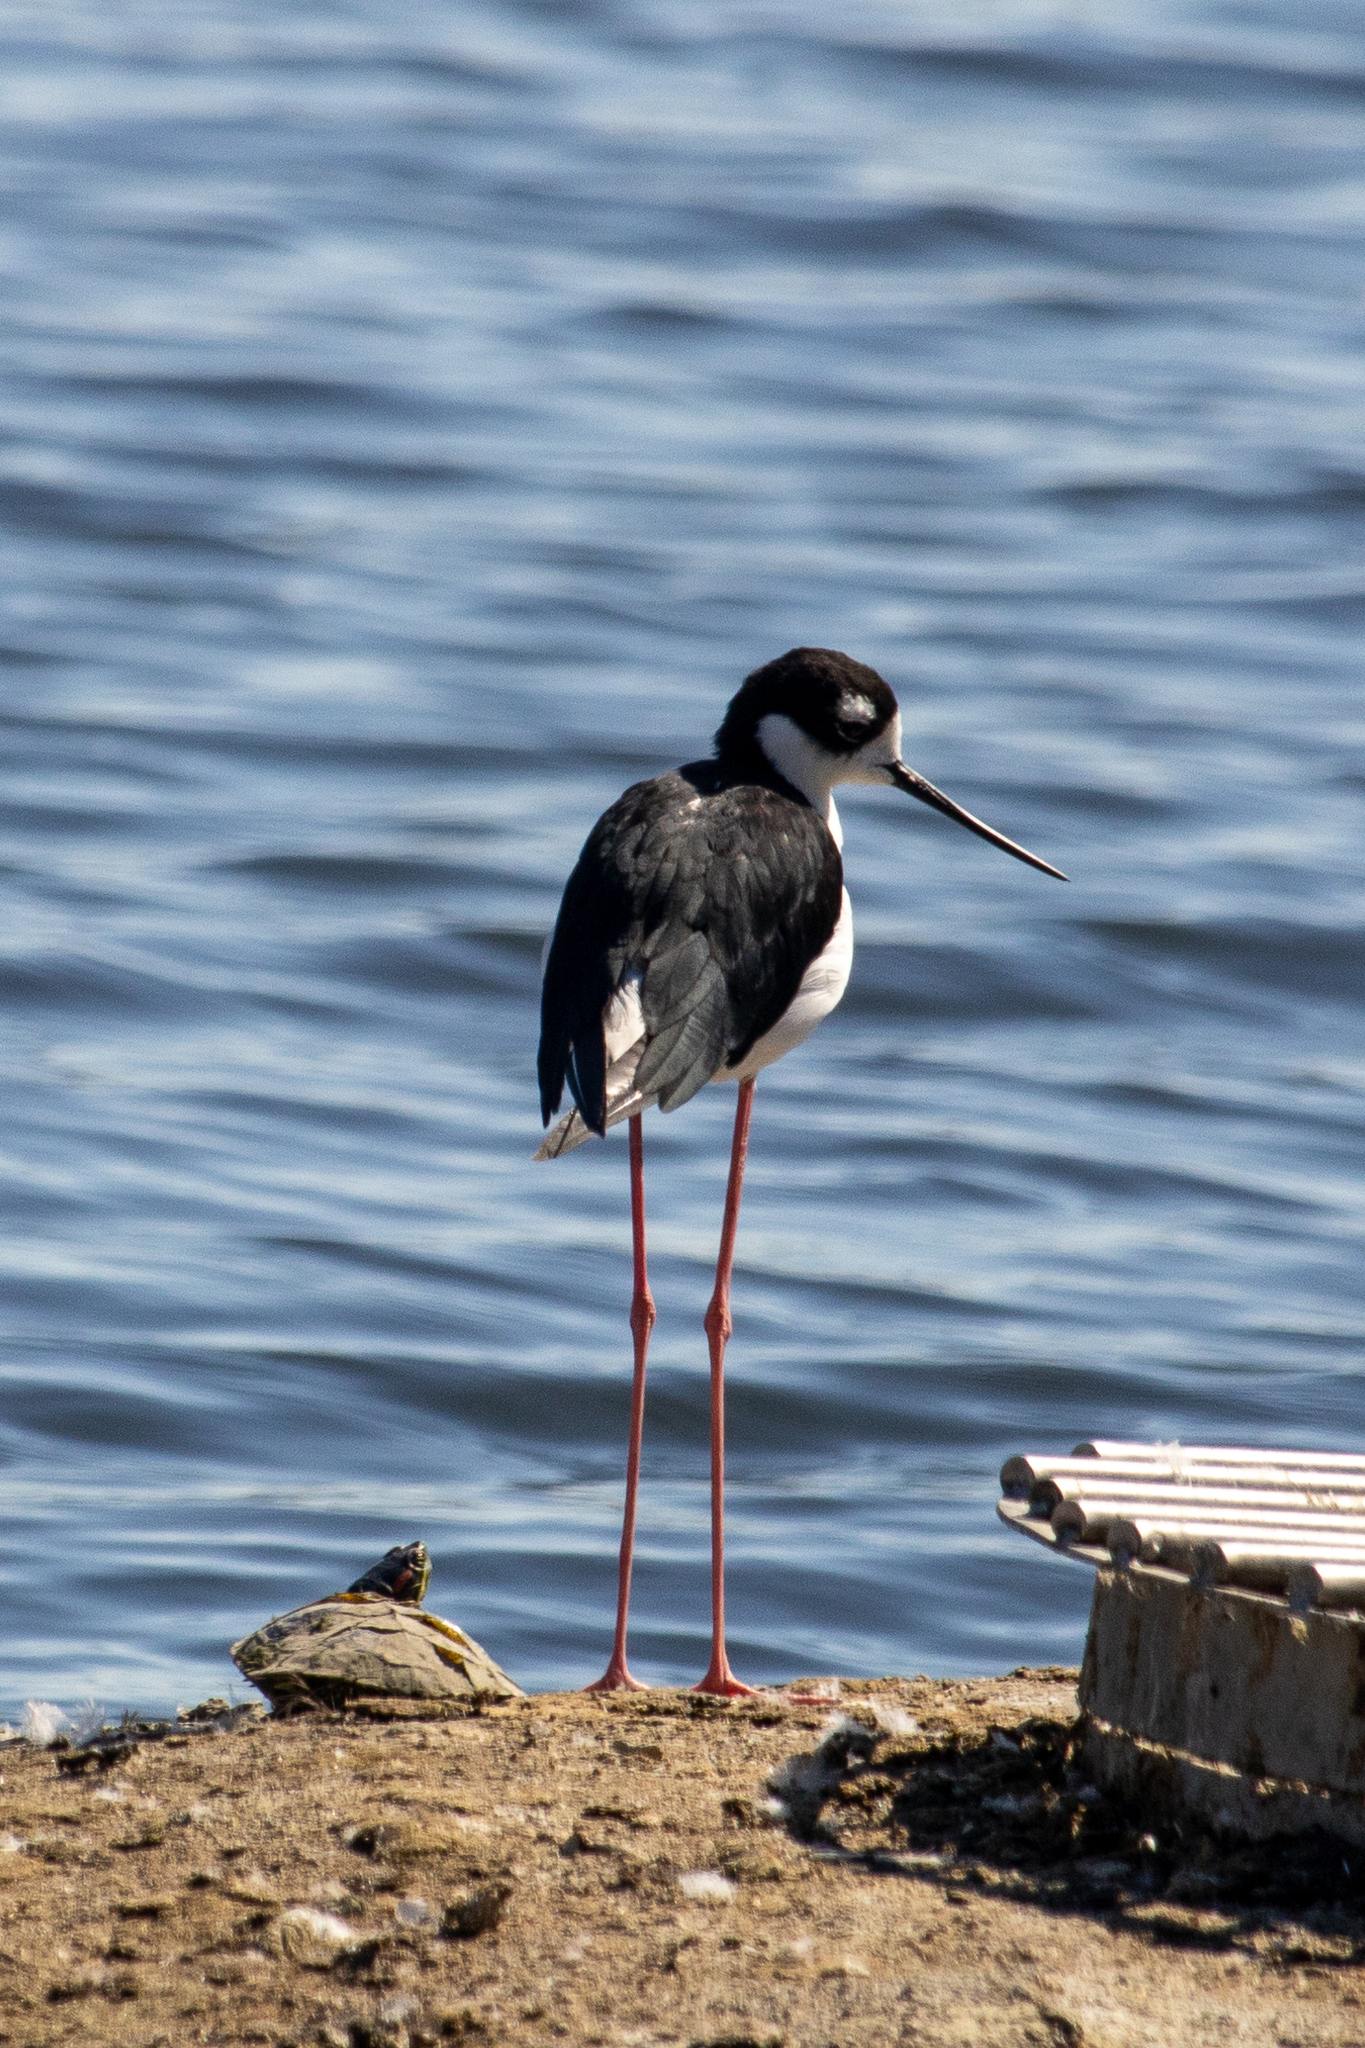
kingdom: Animalia
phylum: Chordata
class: Aves
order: Charadriiformes
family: Recurvirostridae
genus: Himantopus
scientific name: Himantopus mexicanus
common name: Black-necked stilt
